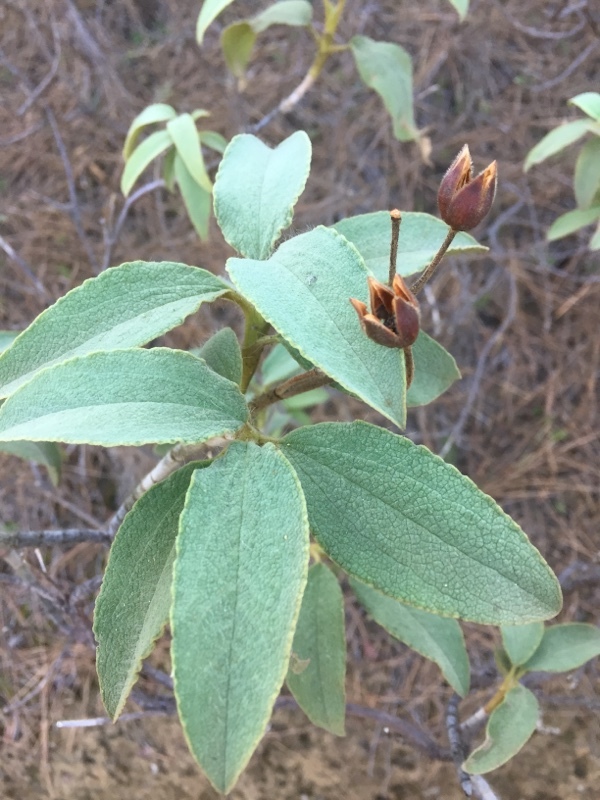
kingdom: Plantae
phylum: Tracheophyta
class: Magnoliopsida
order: Malvales
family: Cistaceae
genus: Cistus
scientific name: Cistus symphytifolius
